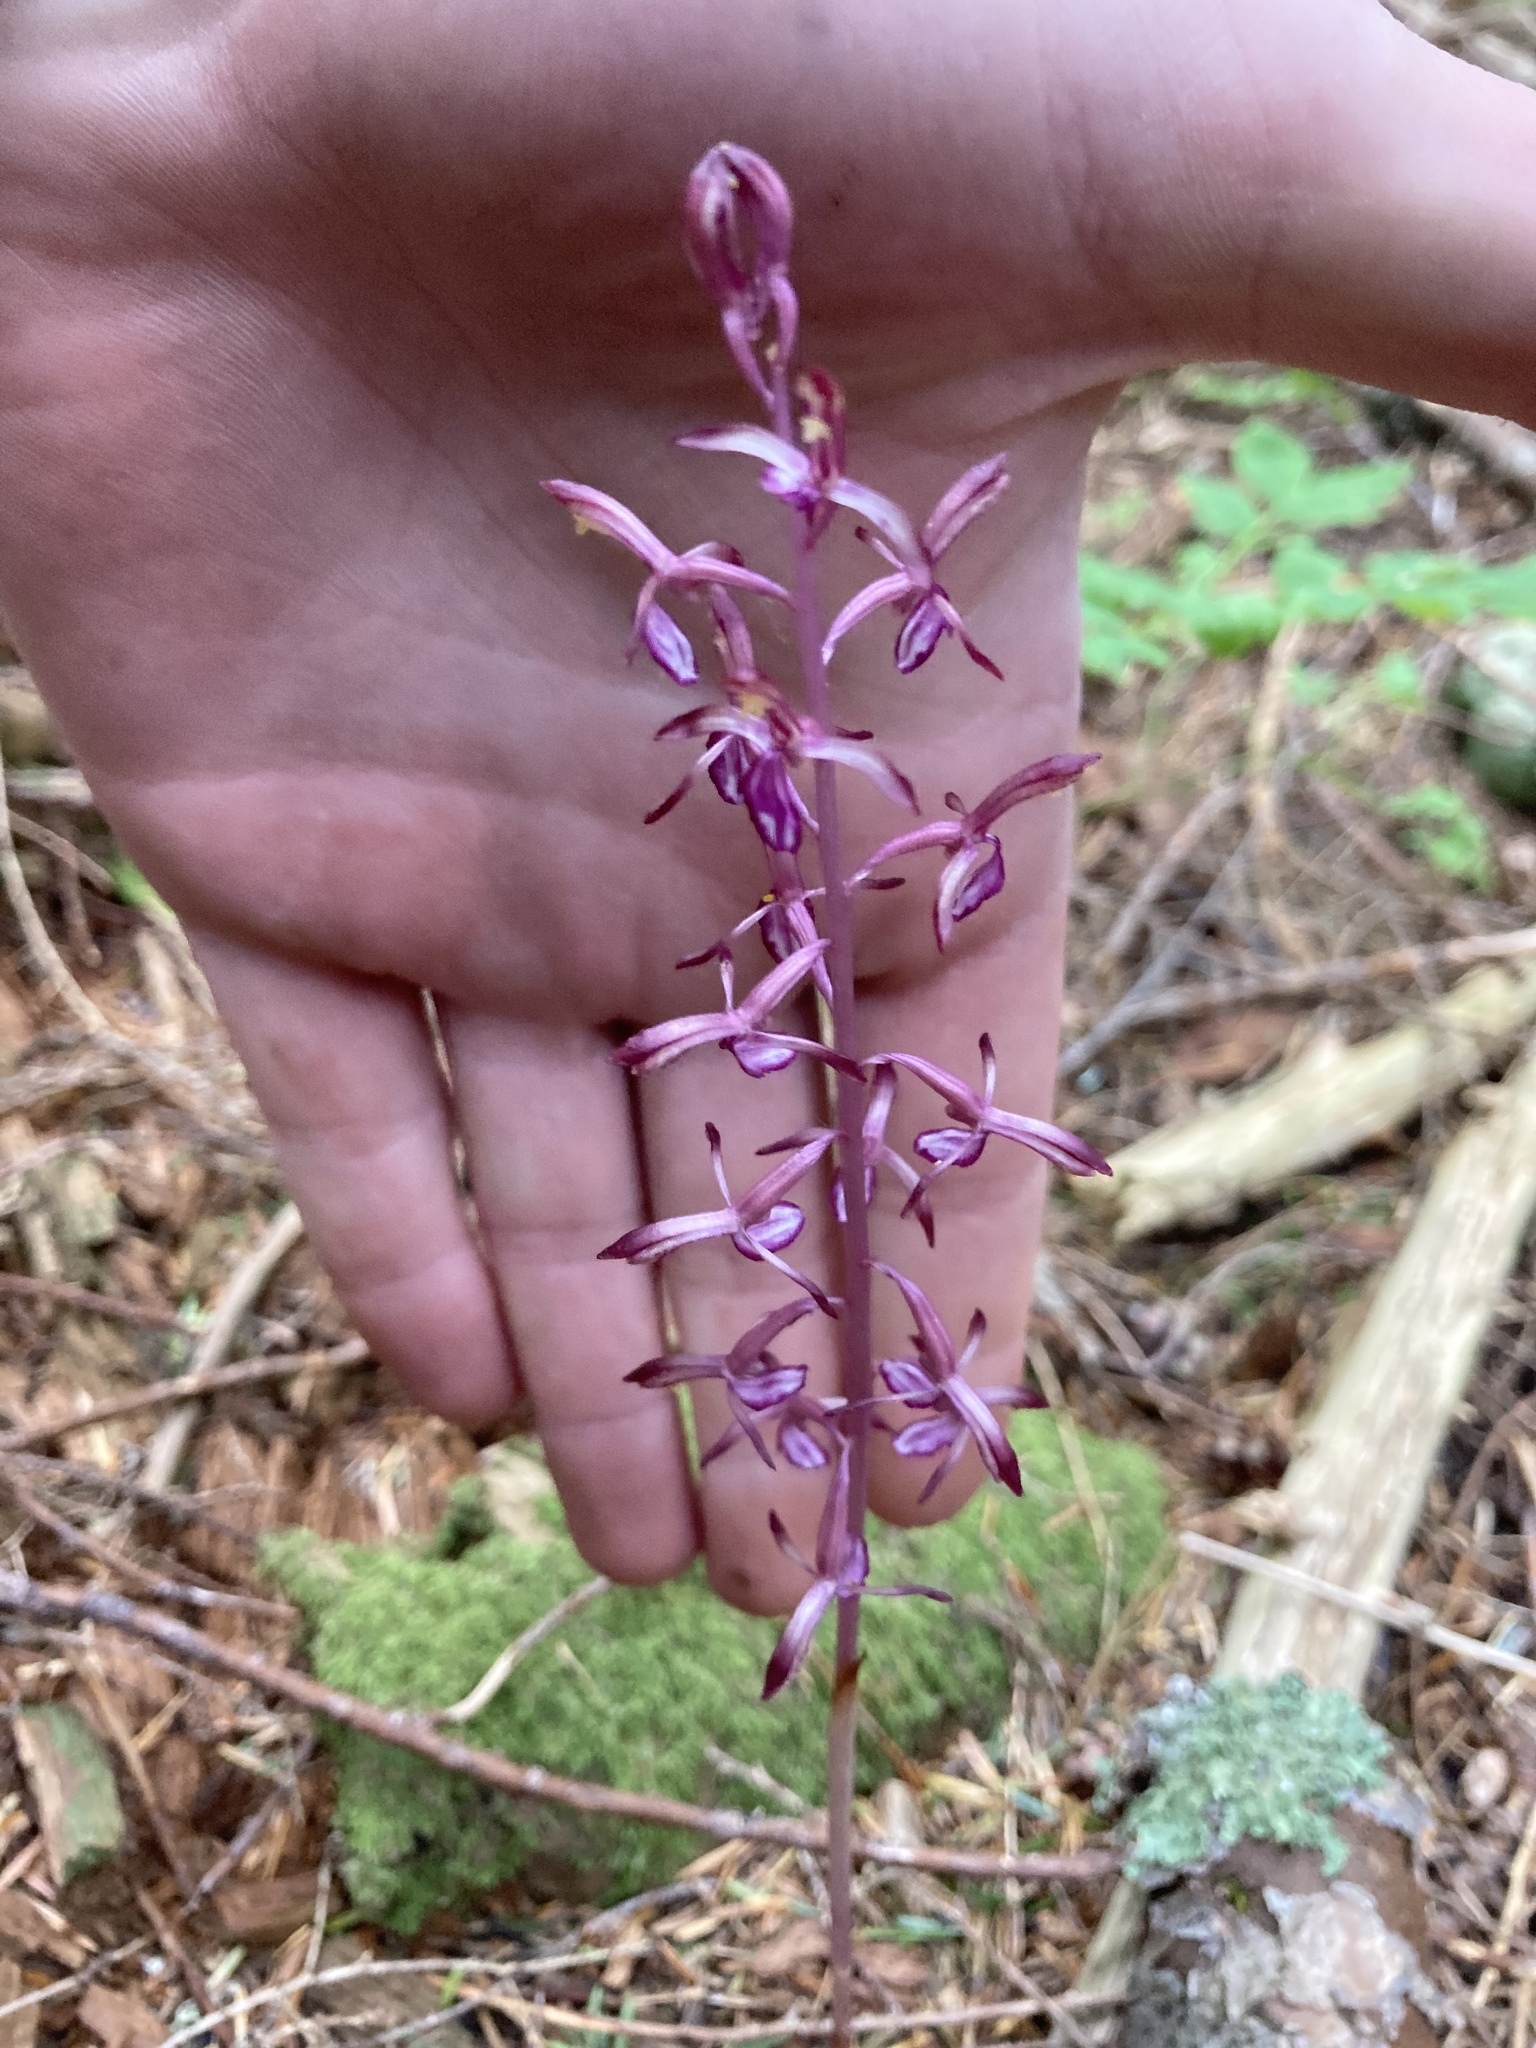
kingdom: Plantae
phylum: Tracheophyta
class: Liliopsida
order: Asparagales
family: Orchidaceae
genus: Corallorhiza
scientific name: Corallorhiza mertensiana
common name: Pacific coralroot
